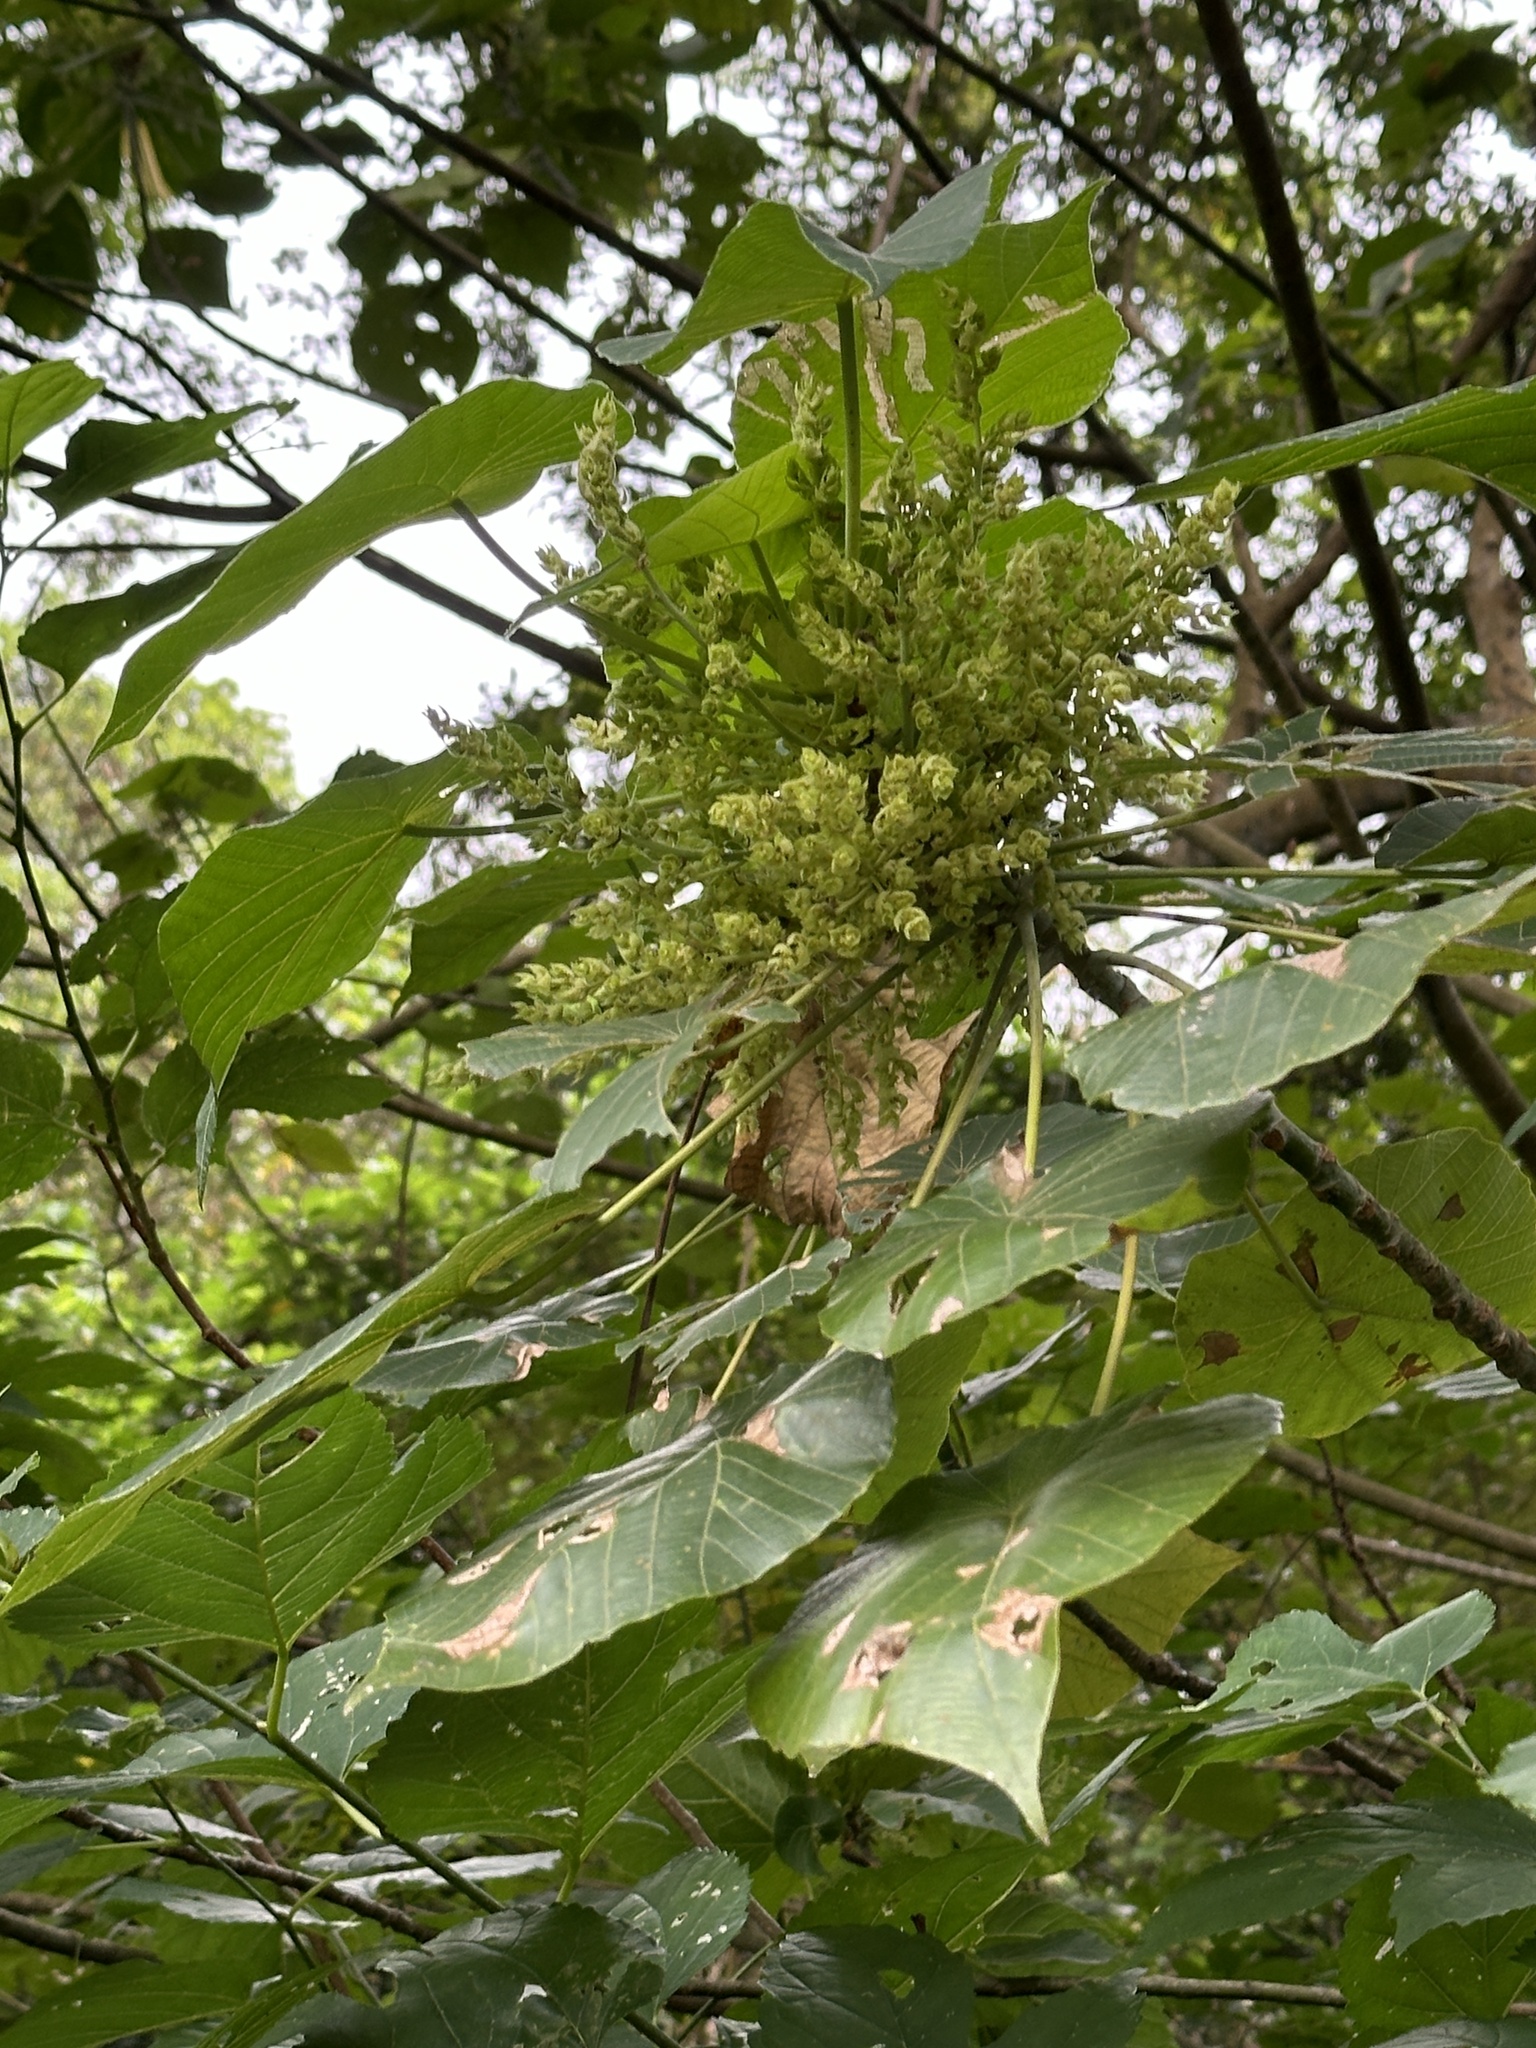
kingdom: Plantae
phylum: Tracheophyta
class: Magnoliopsida
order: Malpighiales
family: Euphorbiaceae
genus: Macaranga
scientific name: Macaranga tanarius
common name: Parasol leaf tree
